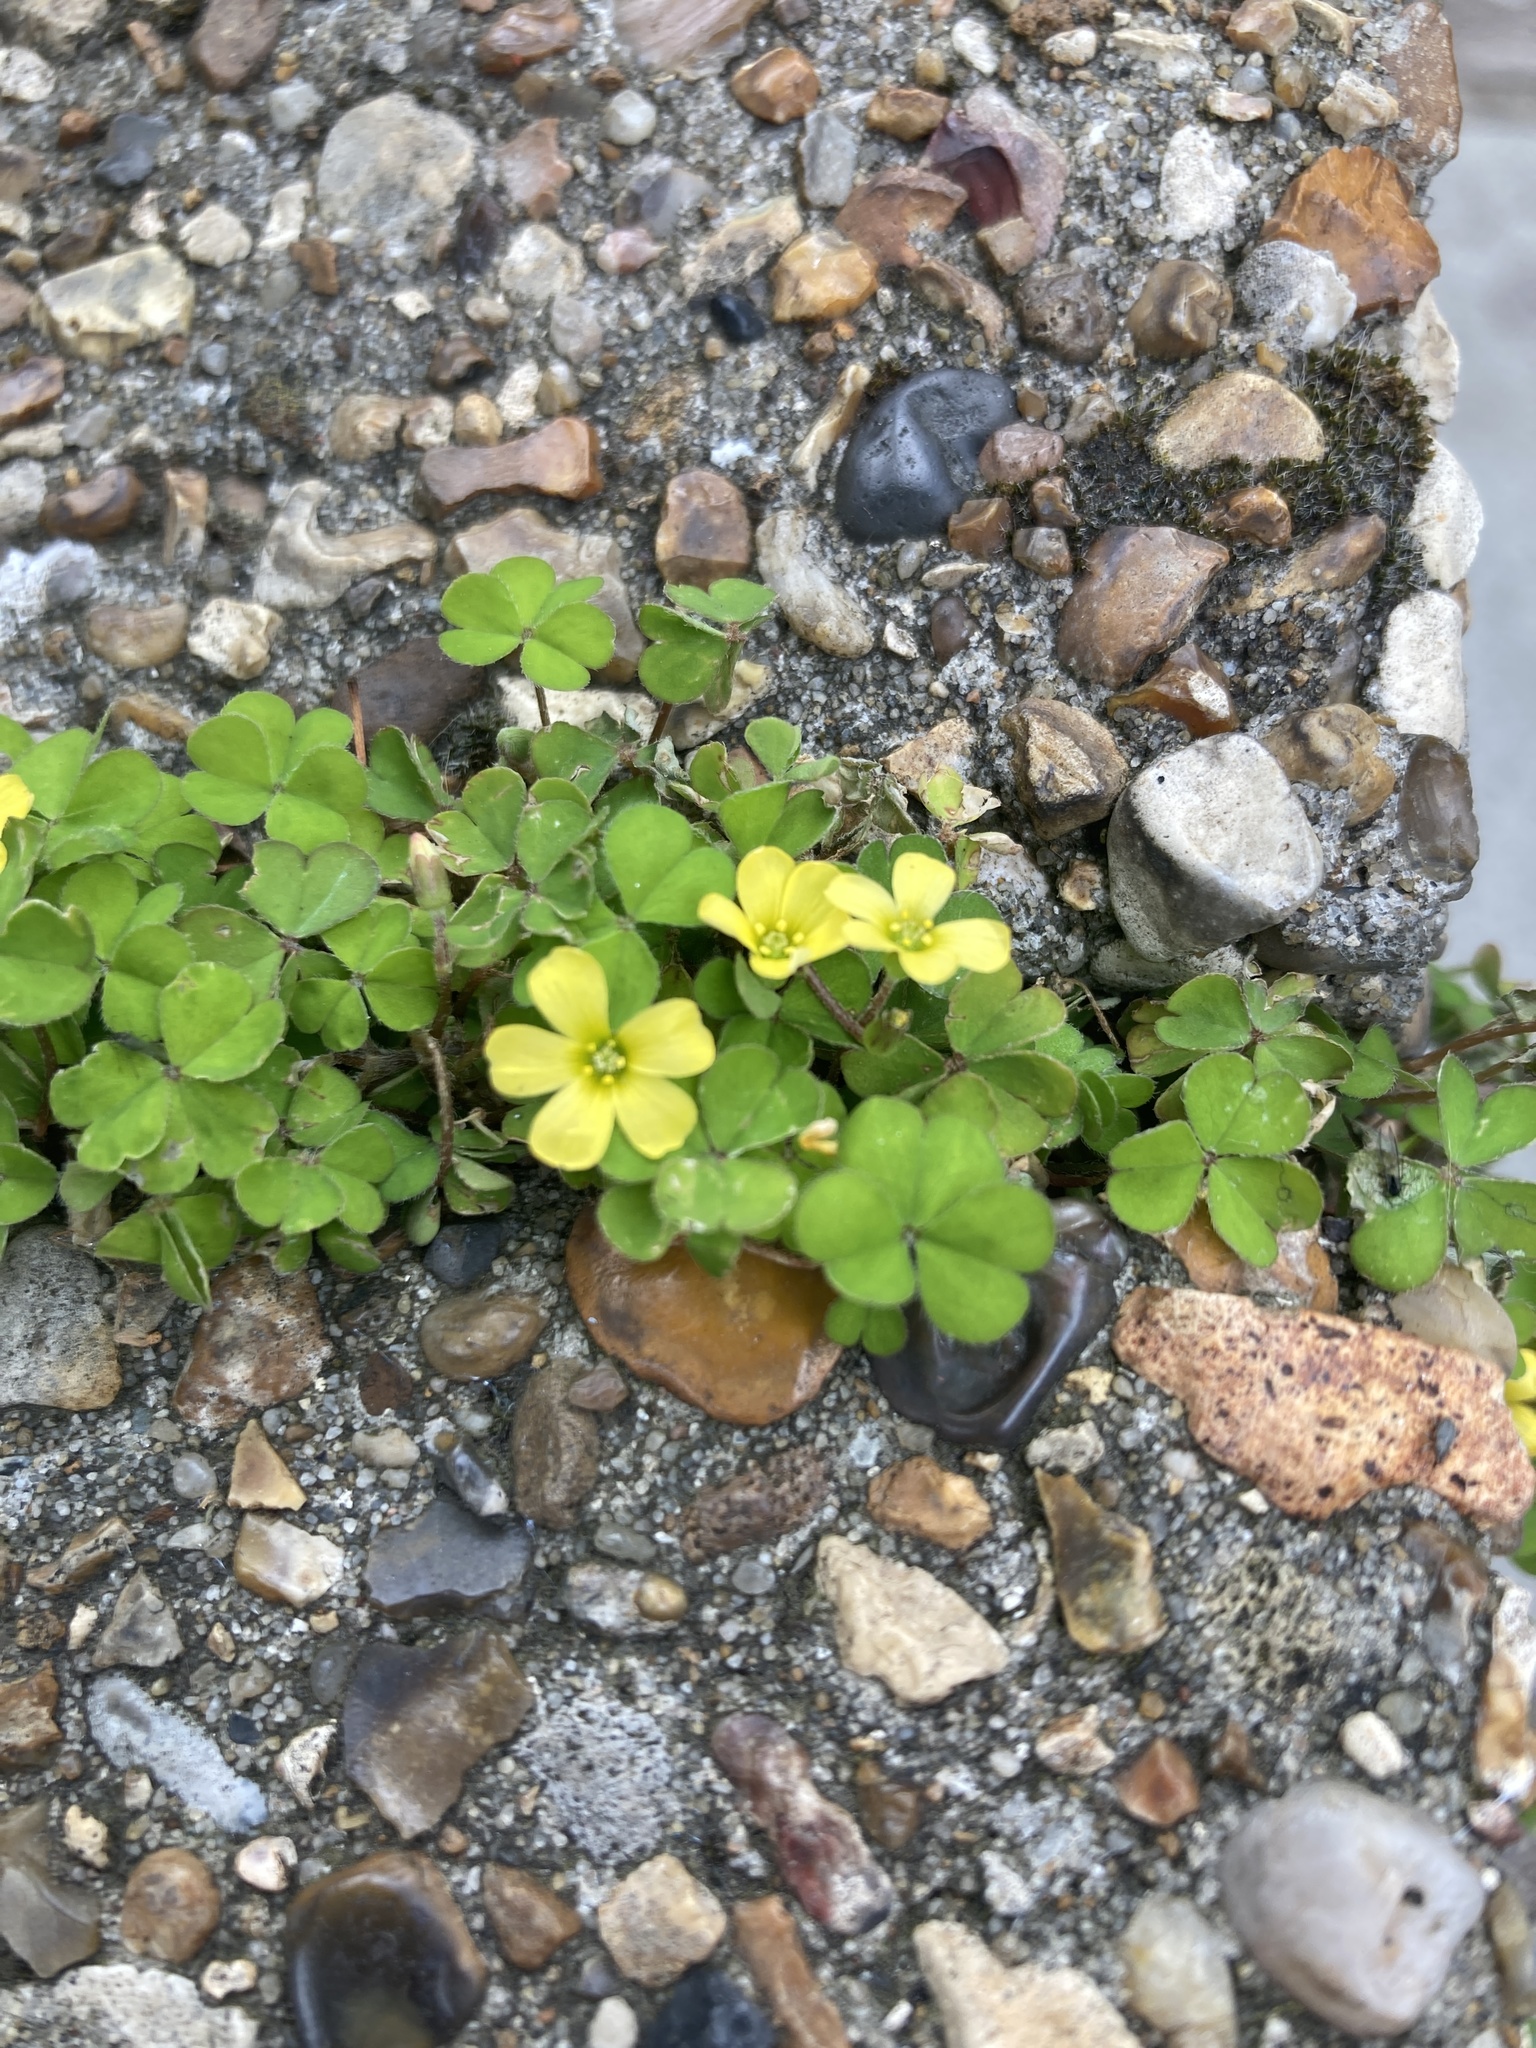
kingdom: Plantae
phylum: Tracheophyta
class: Magnoliopsida
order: Oxalidales
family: Oxalidaceae
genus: Oxalis
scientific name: Oxalis exilis
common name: Least yellow-sorrel
